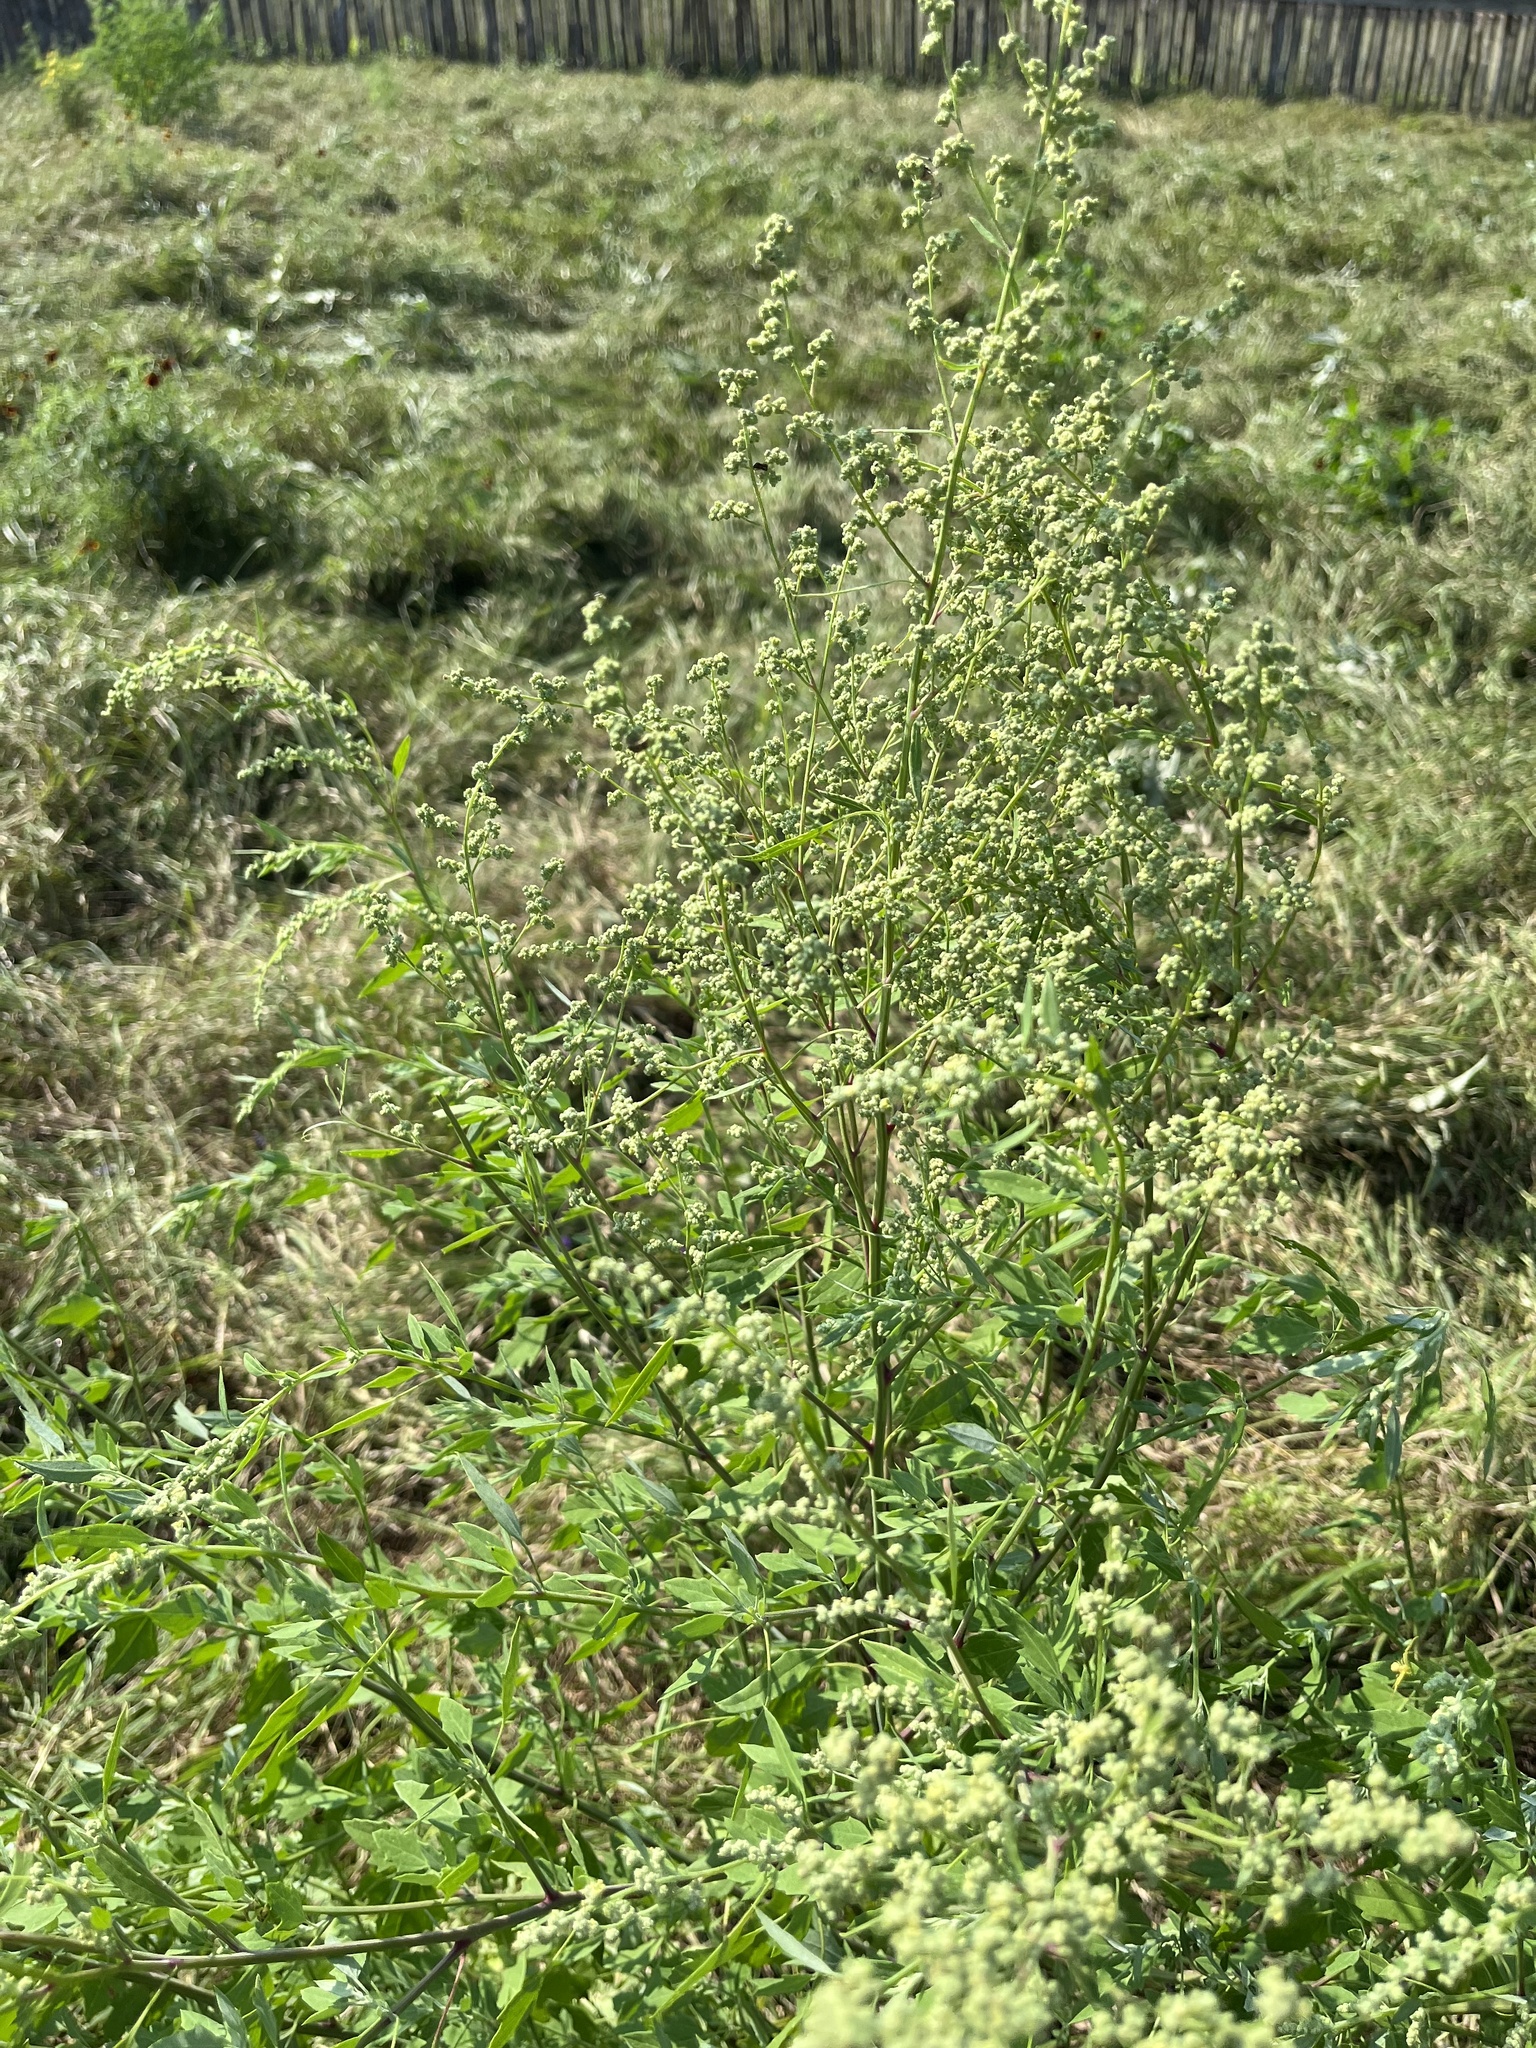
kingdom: Plantae
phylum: Tracheophyta
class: Magnoliopsida
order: Caryophyllales
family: Amaranthaceae
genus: Chenopodium
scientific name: Chenopodium album
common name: Fat-hen
